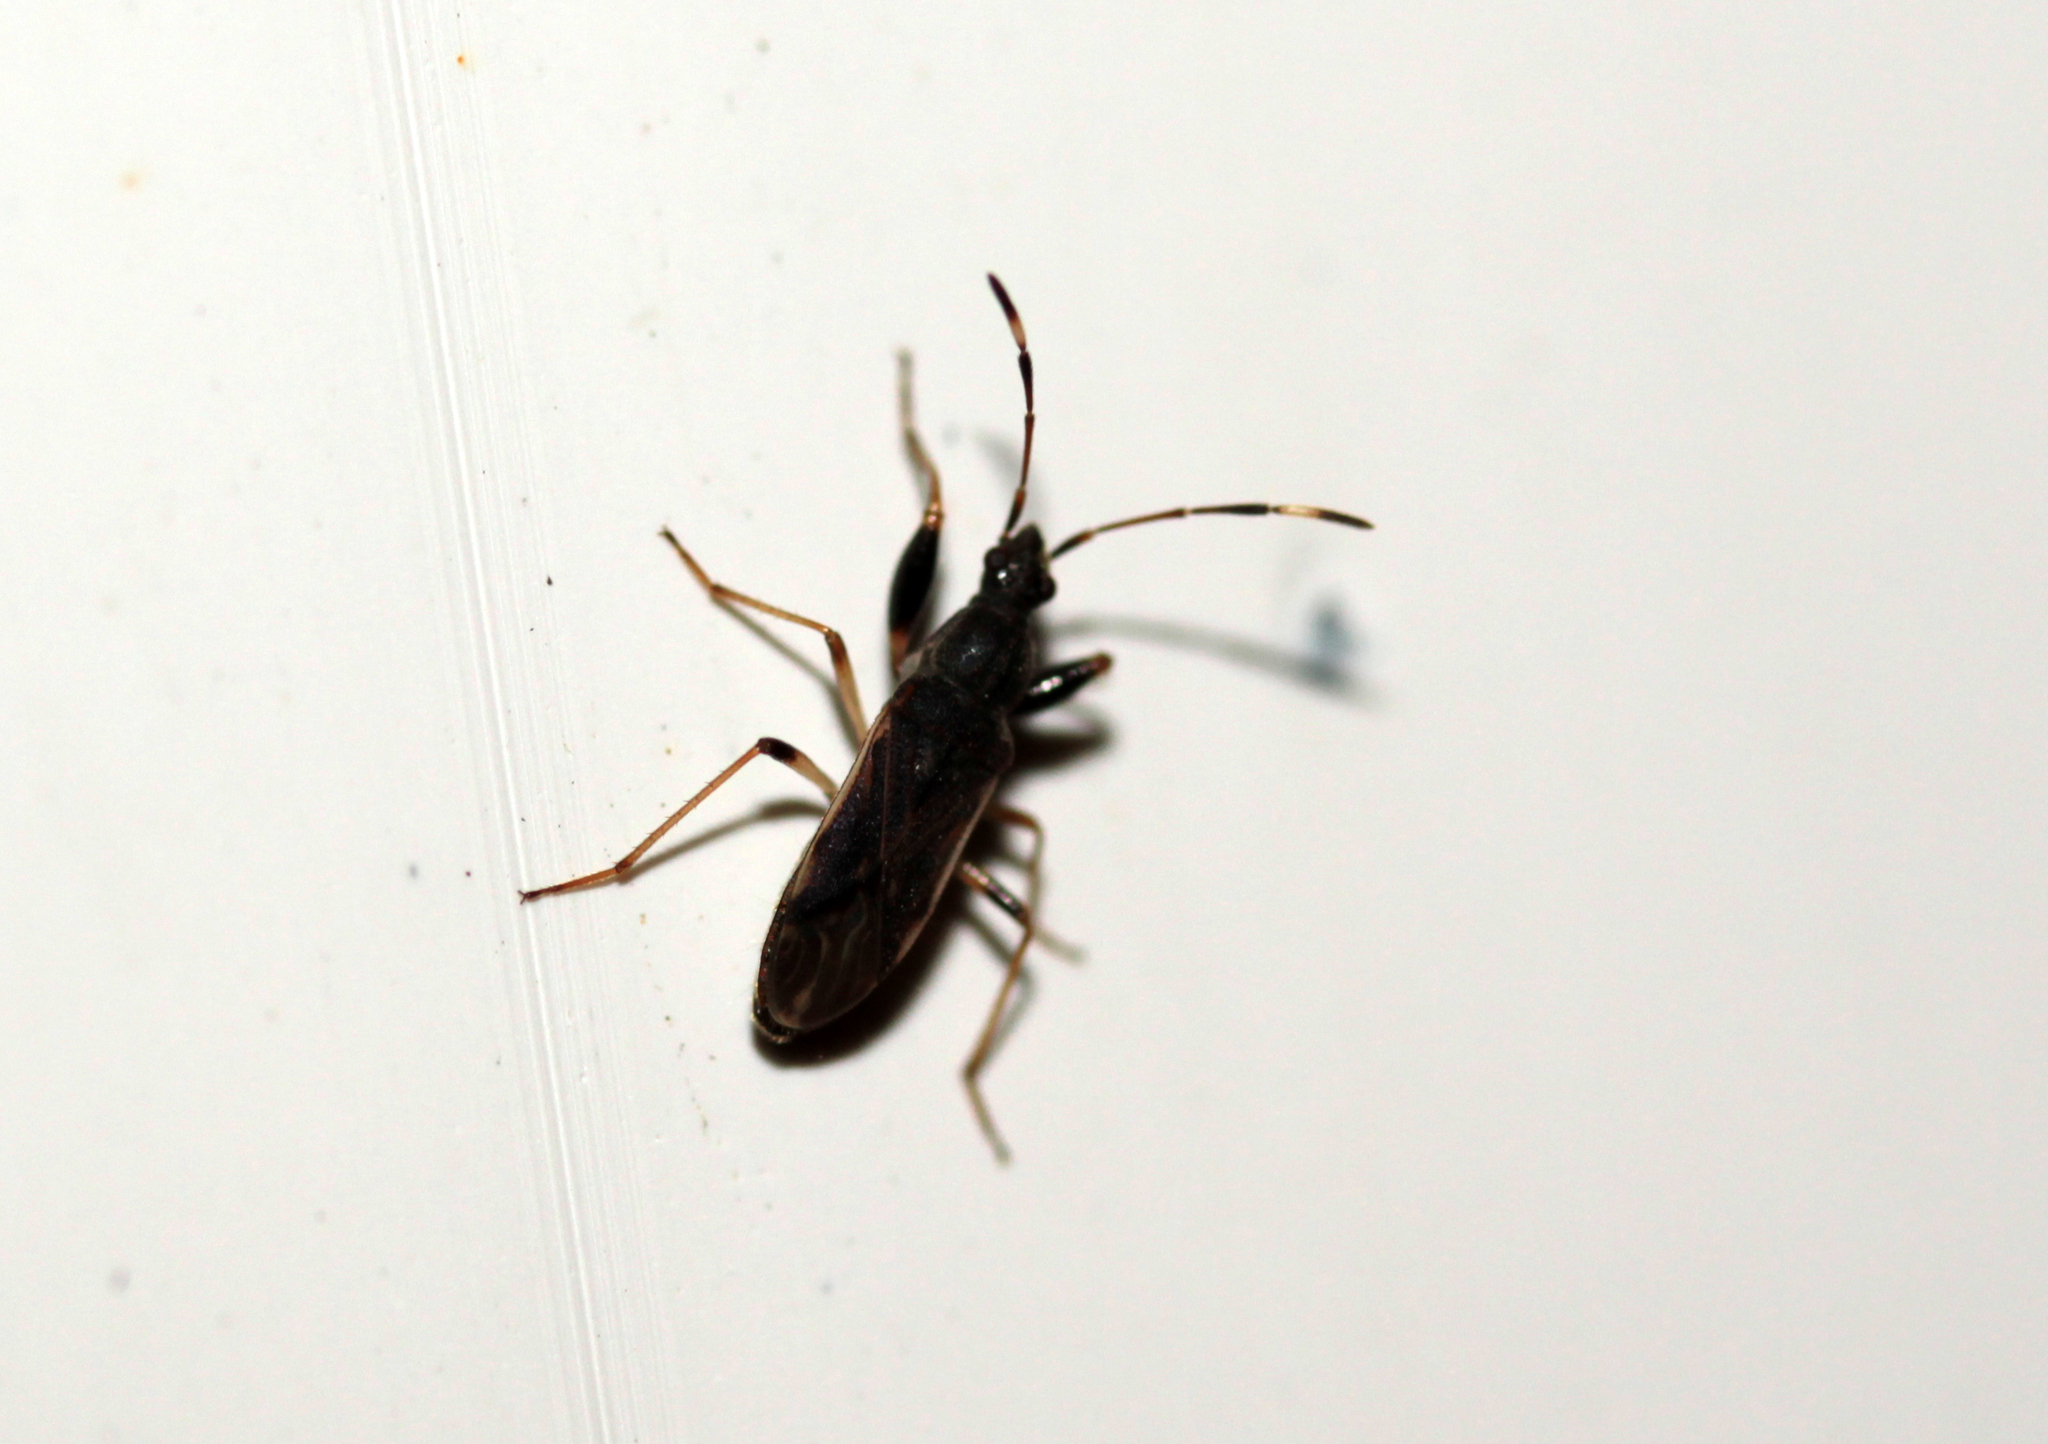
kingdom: Animalia
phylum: Arthropoda
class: Insecta
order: Hemiptera
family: Rhyparochromidae
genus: Horridipamera
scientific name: Horridipamera lateralis
